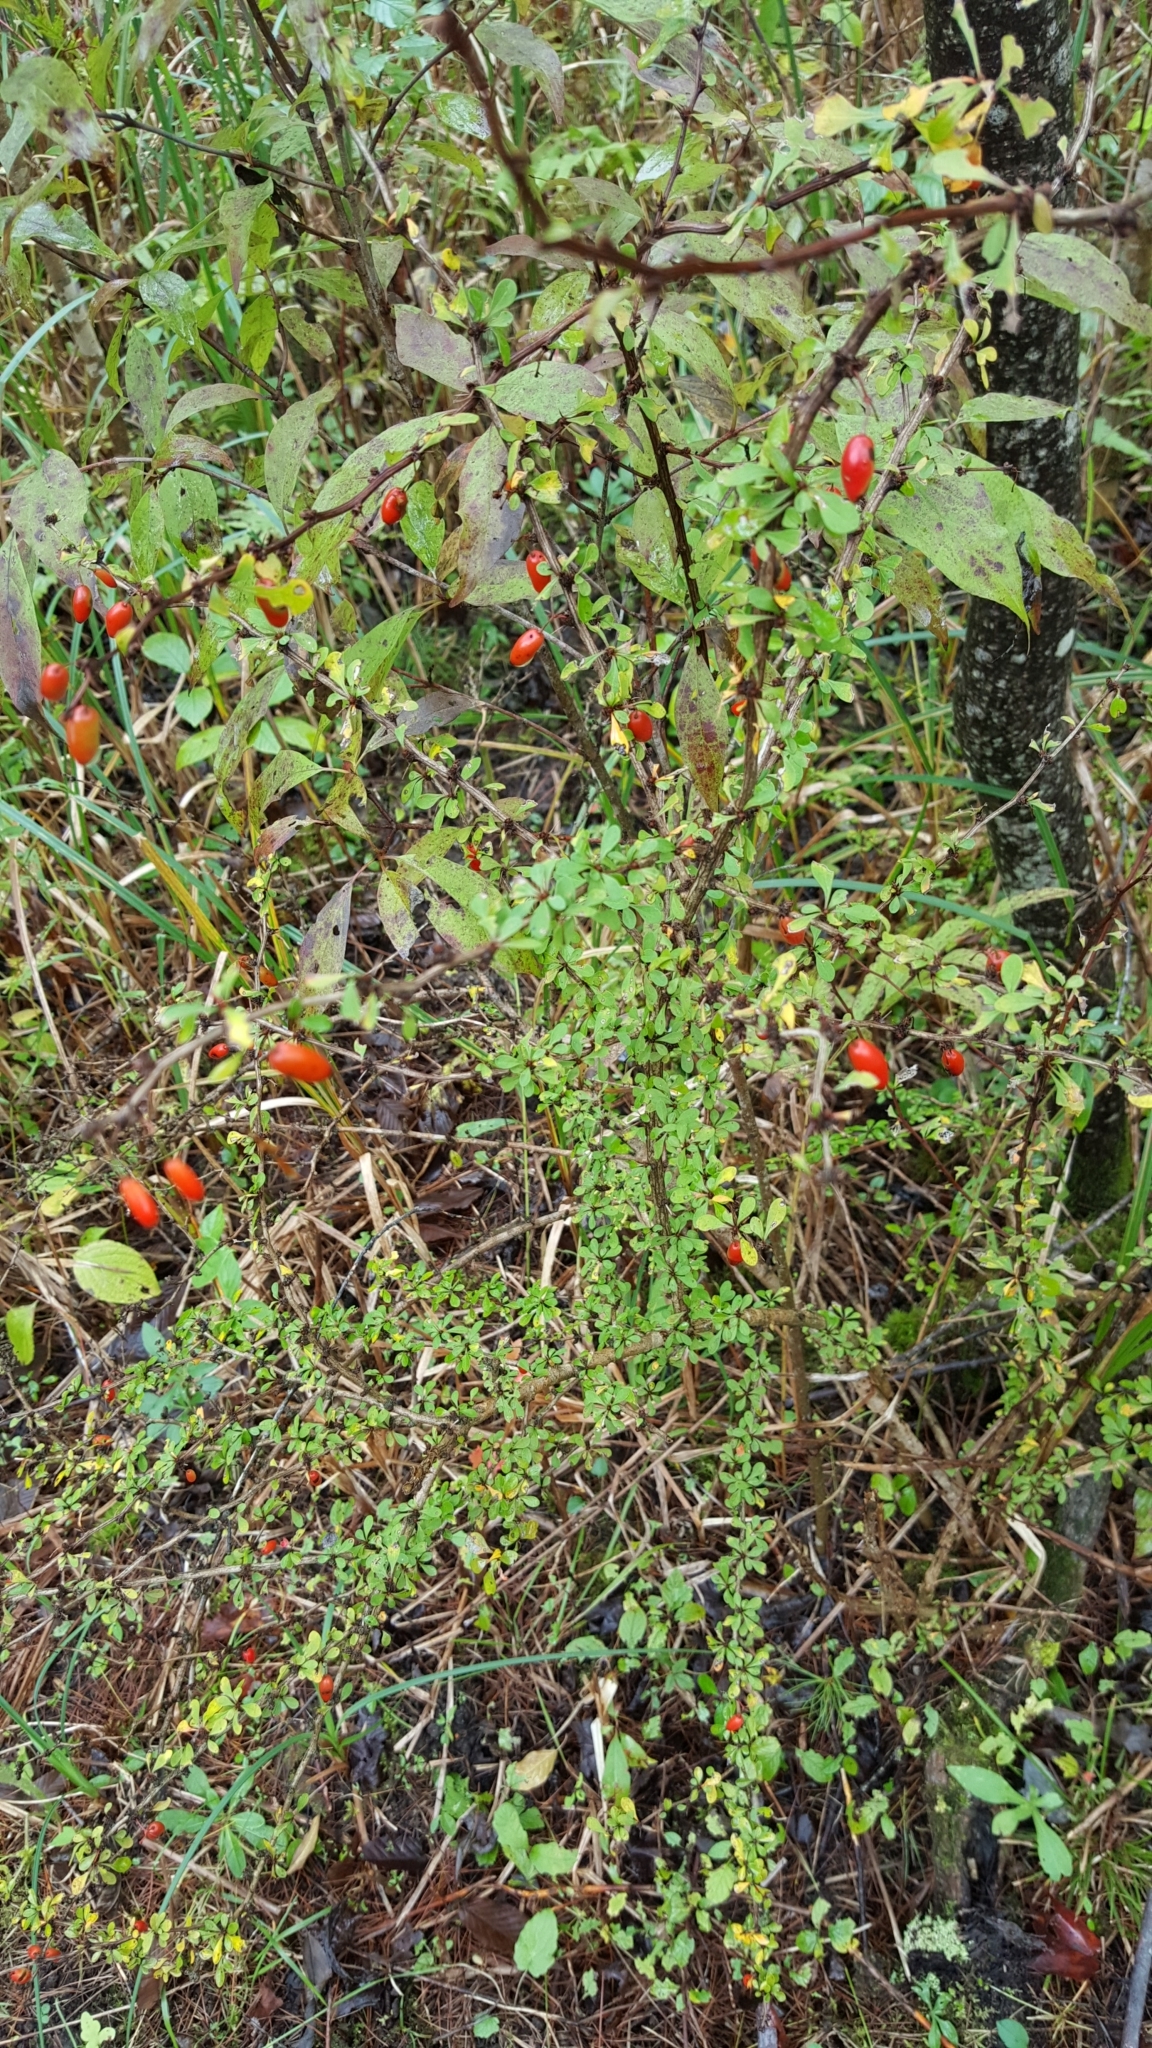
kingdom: Plantae
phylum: Tracheophyta
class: Magnoliopsida
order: Ranunculales
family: Berberidaceae
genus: Berberis
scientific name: Berberis thunbergii
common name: Japanese barberry
